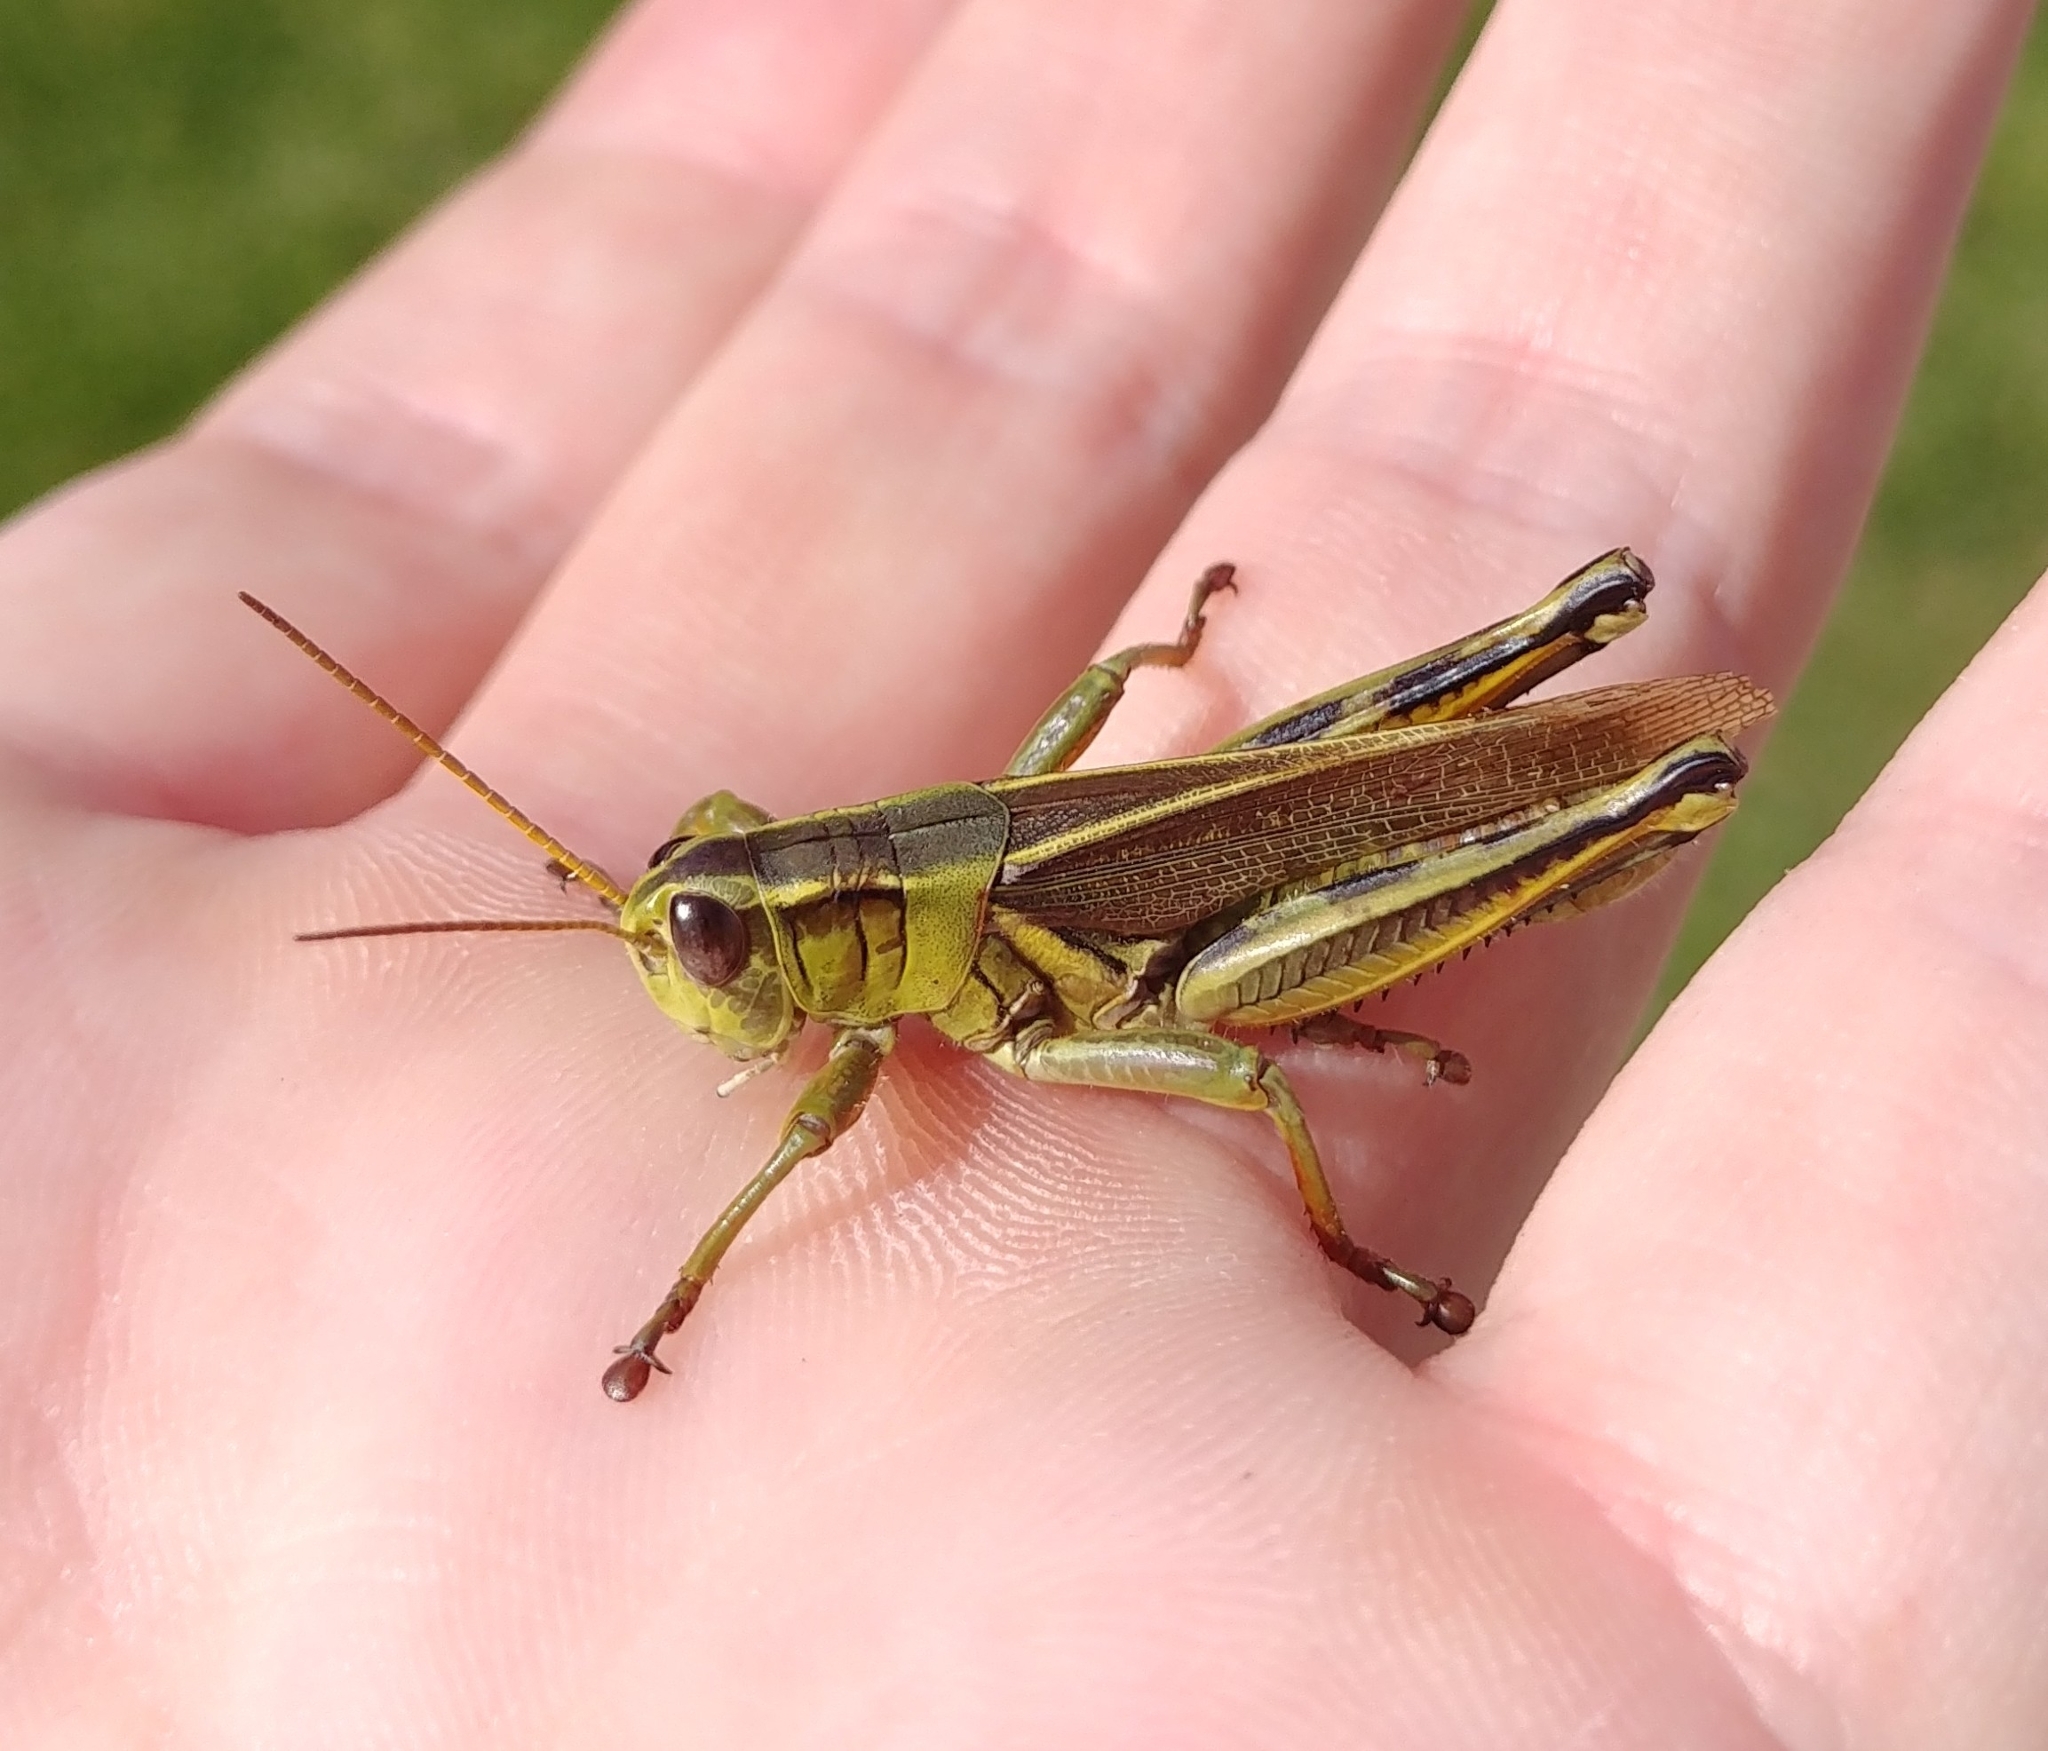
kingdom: Animalia
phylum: Arthropoda
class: Insecta
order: Orthoptera
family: Acrididae
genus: Melanoplus
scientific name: Melanoplus bivittatus
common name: Two-striped grasshopper
